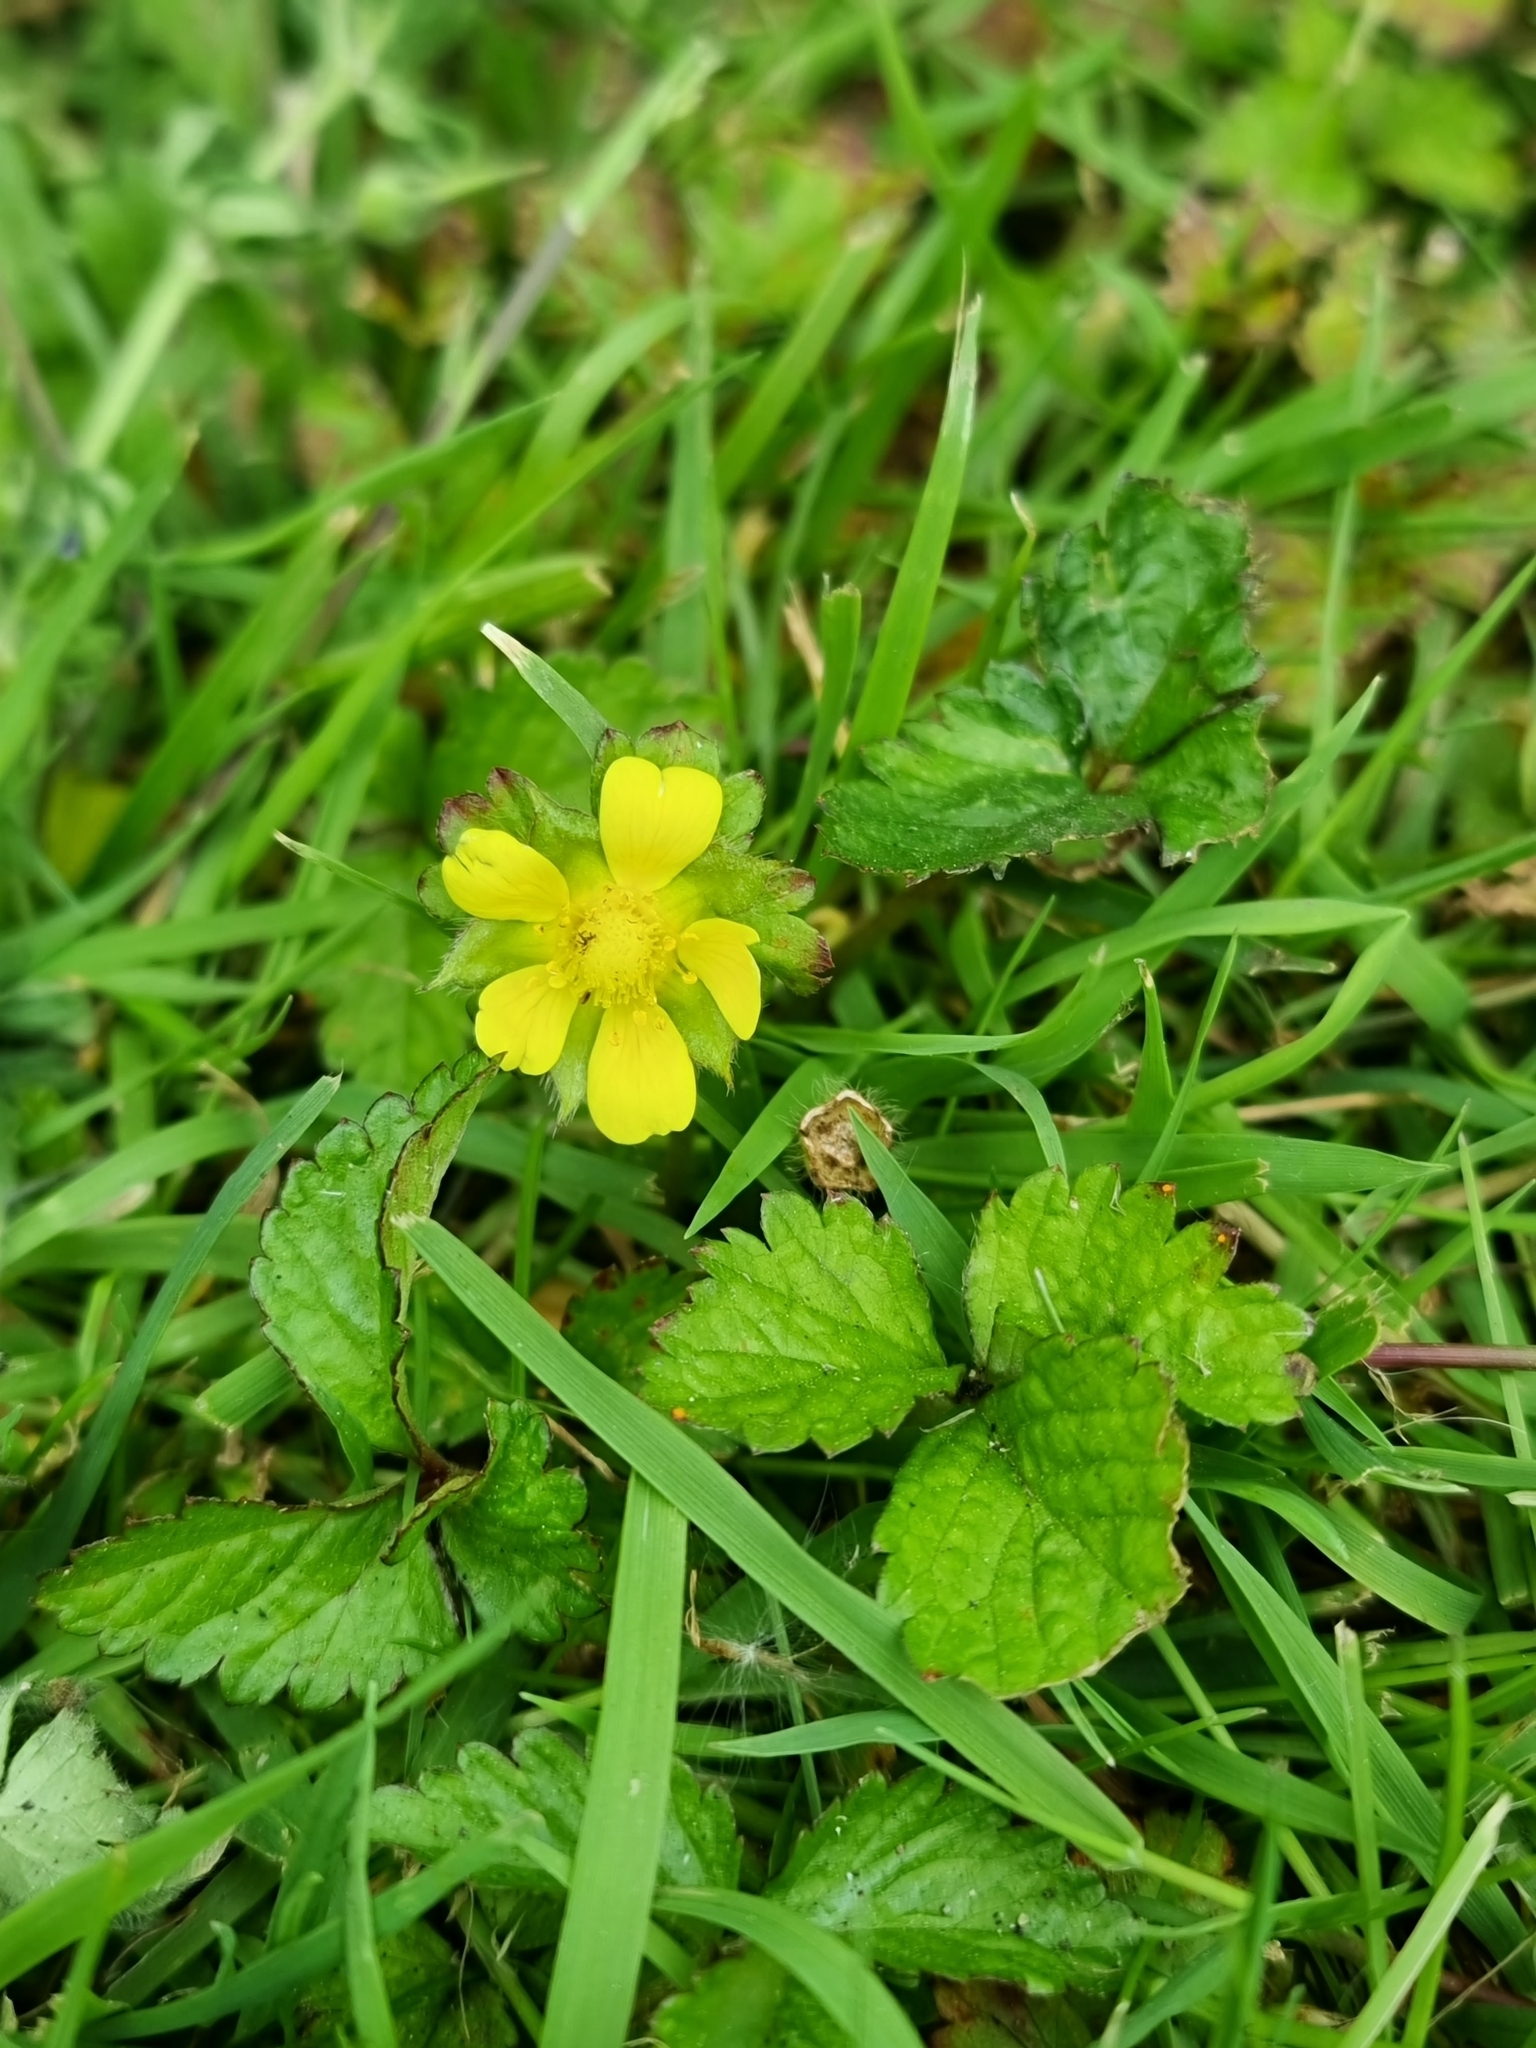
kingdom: Plantae
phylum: Tracheophyta
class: Magnoliopsida
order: Rosales
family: Rosaceae
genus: Potentilla
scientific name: Potentilla indica
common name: Yellow-flowered strawberry
